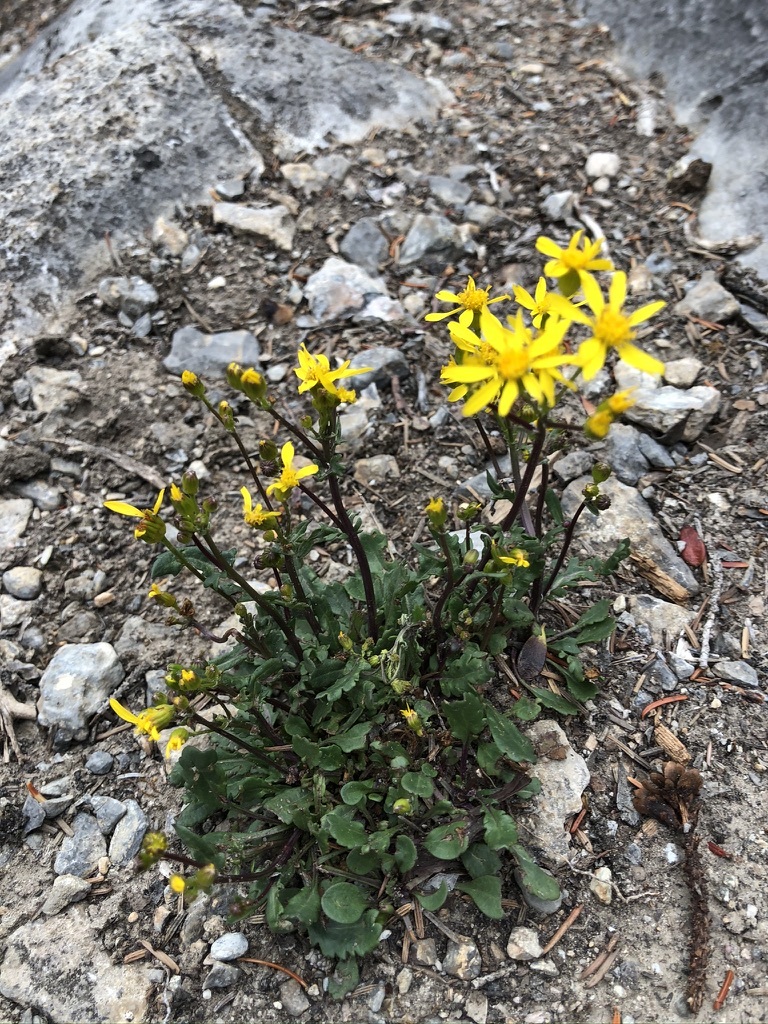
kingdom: Plantae
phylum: Tracheophyta
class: Magnoliopsida
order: Asterales
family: Asteraceae
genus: Packera
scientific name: Packera streptanthifolia
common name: Rocky mountain butterweed
